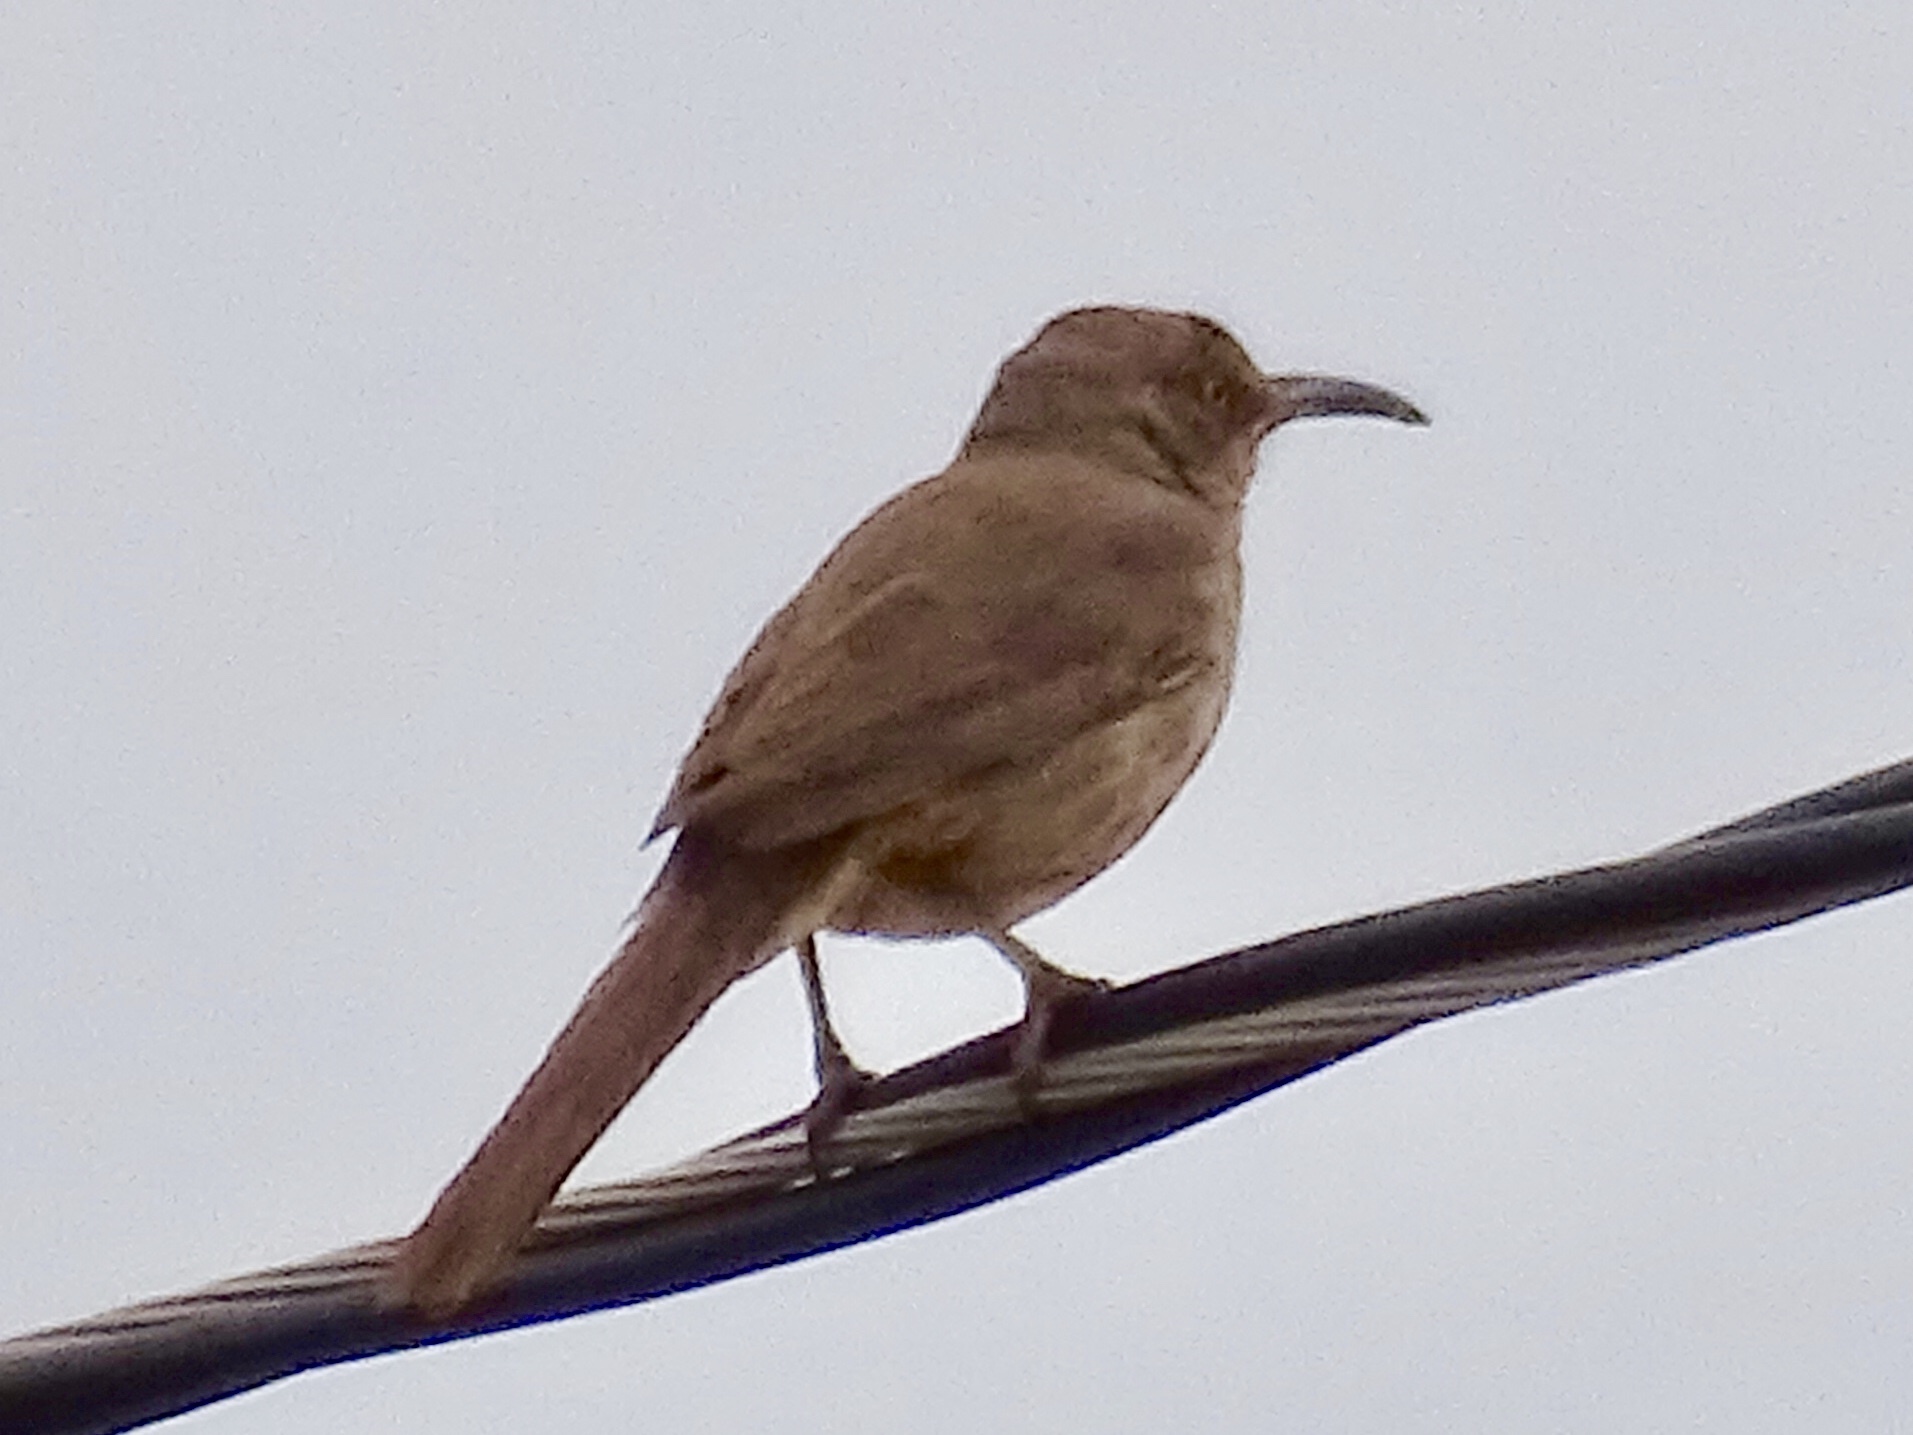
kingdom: Animalia
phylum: Chordata
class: Aves
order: Passeriformes
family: Mimidae
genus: Toxostoma
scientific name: Toxostoma crissale
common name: Crissal thrasher
